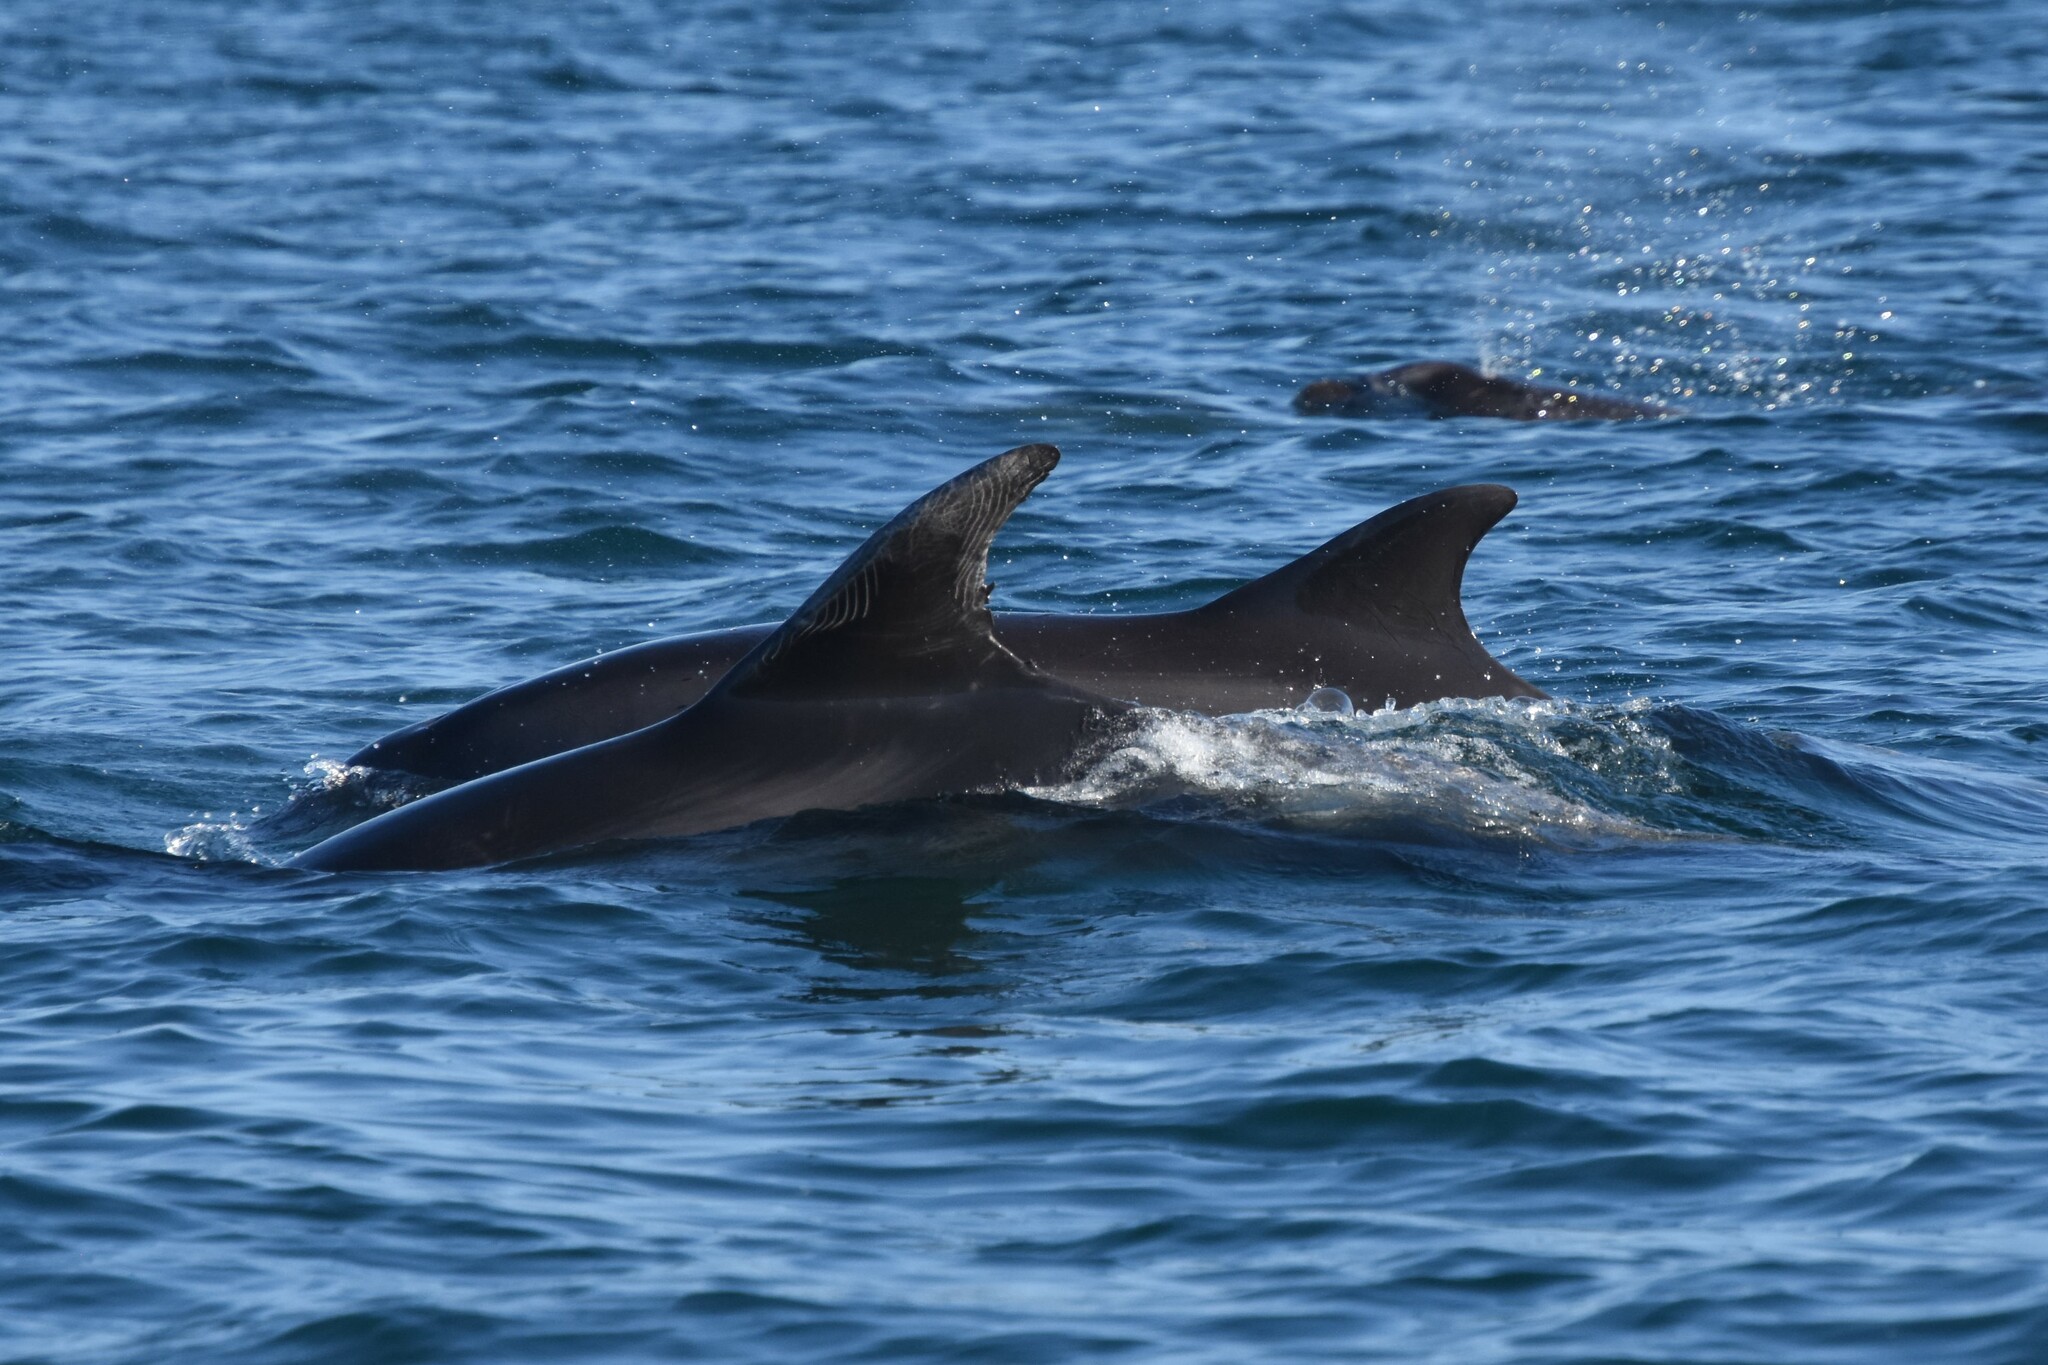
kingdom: Animalia
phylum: Chordata
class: Mammalia
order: Cetacea
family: Delphinidae
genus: Tursiops
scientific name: Tursiops truncatus
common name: Bottlenose dolphin
